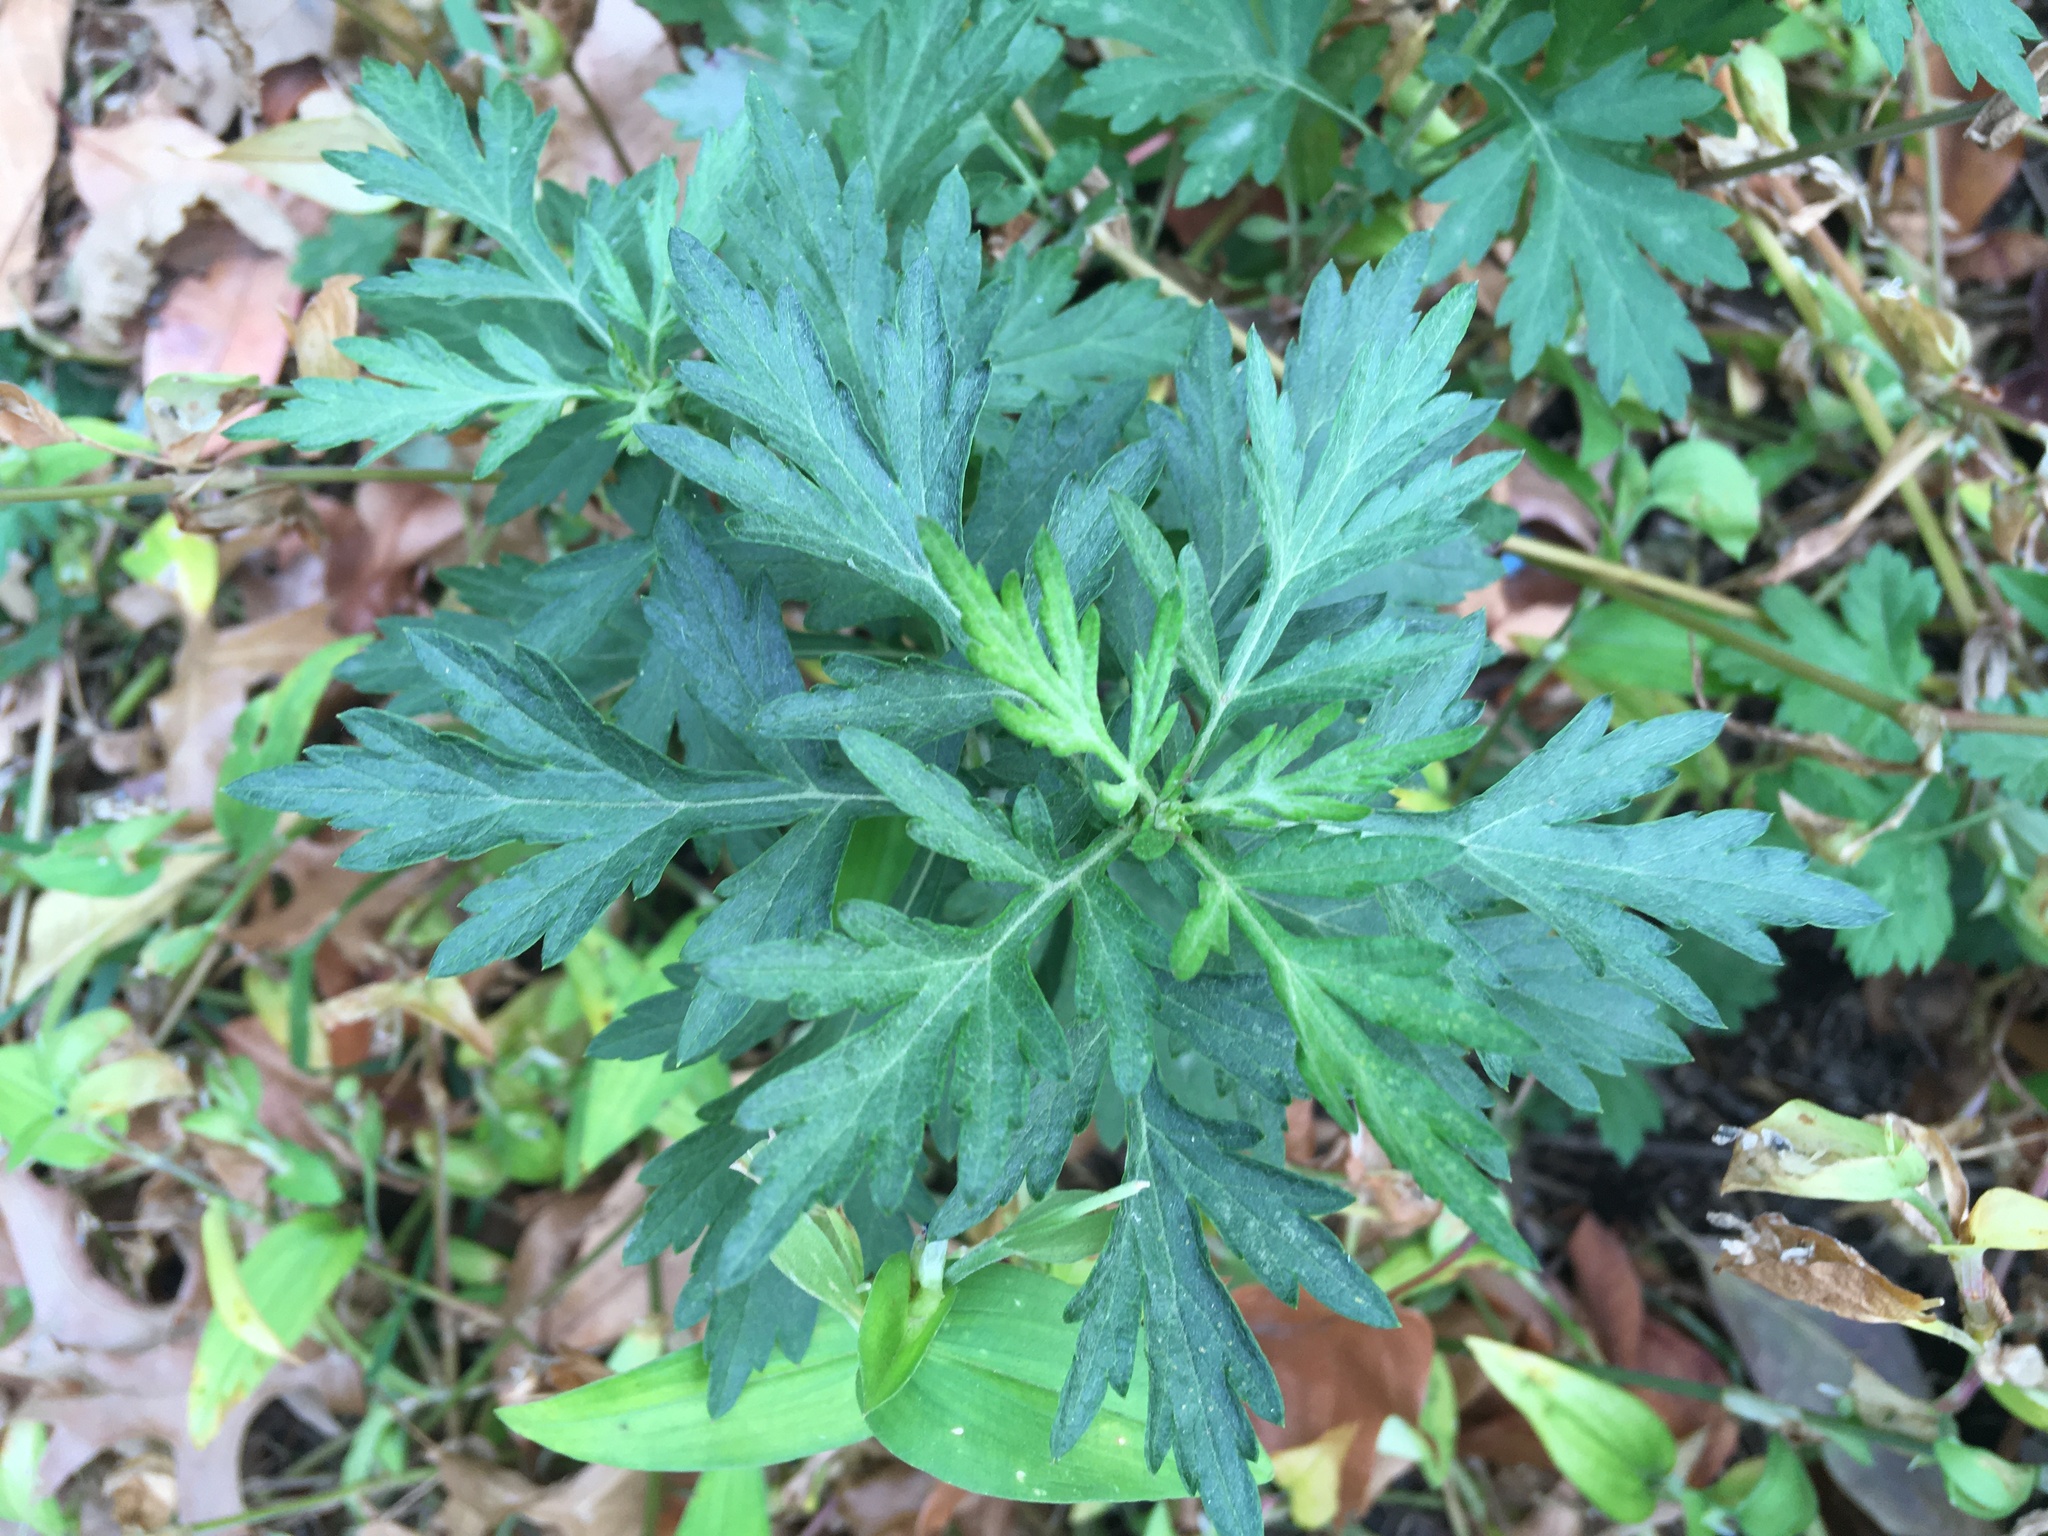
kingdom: Plantae
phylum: Tracheophyta
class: Magnoliopsida
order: Asterales
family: Asteraceae
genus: Artemisia
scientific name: Artemisia vulgaris
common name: Mugwort
